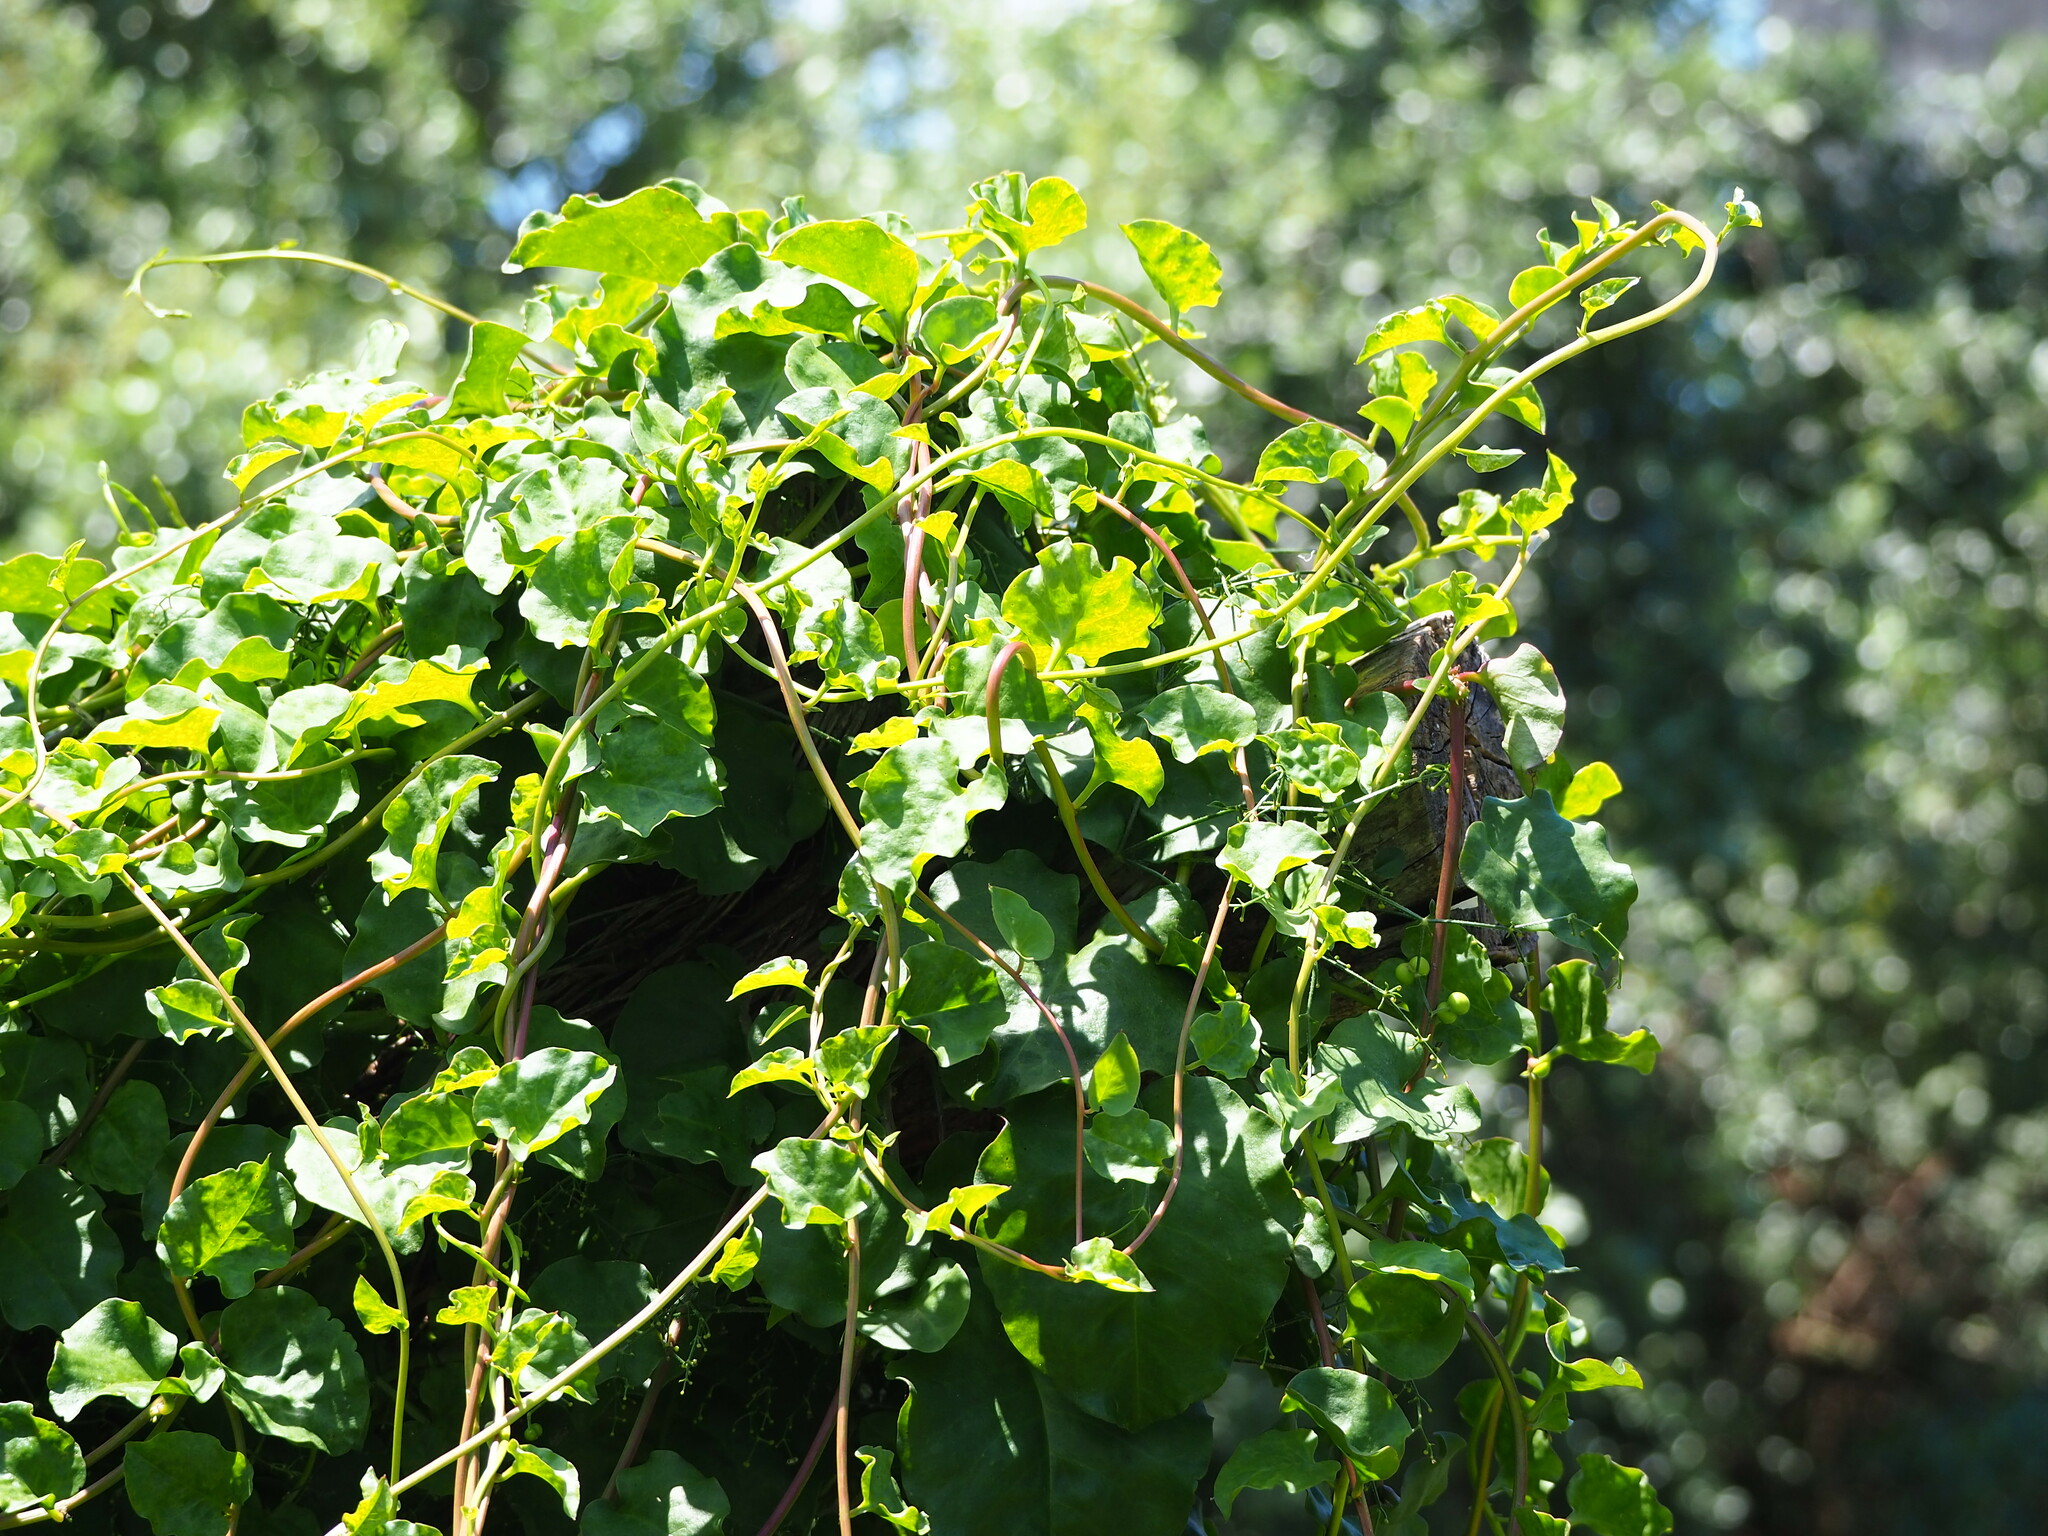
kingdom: Plantae
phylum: Tracheophyta
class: Magnoliopsida
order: Caryophyllales
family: Basellaceae
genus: Anredera
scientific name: Anredera cordifolia
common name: Heartleaf madeiravine
